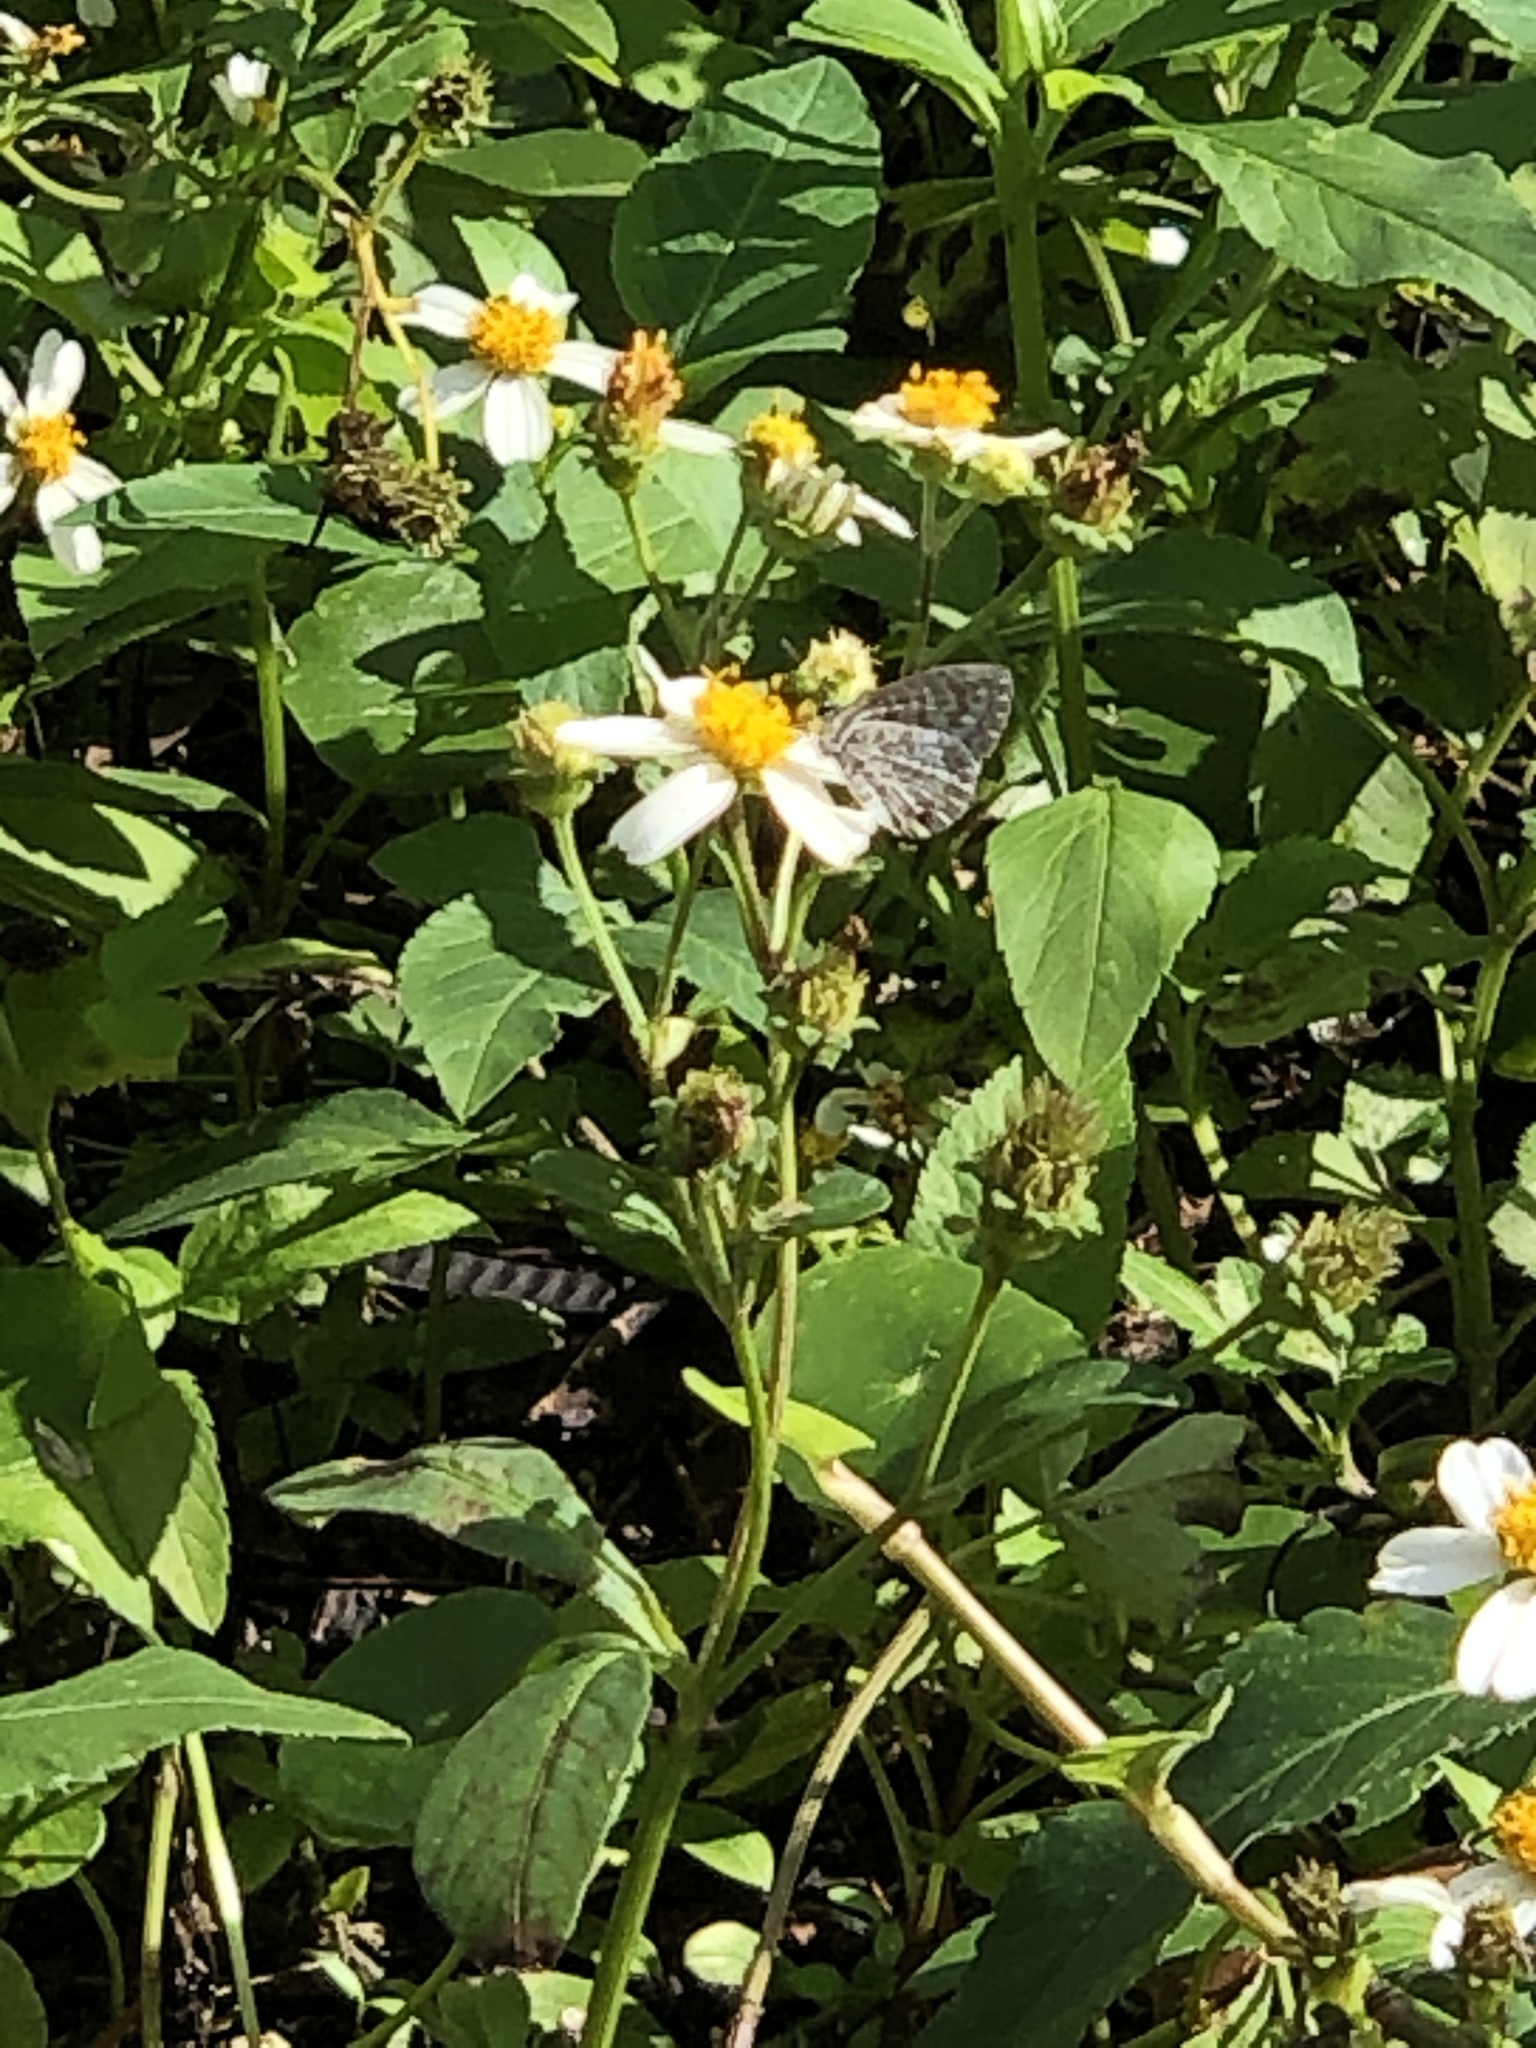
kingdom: Animalia
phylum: Arthropoda
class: Insecta
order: Lepidoptera
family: Lycaenidae
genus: Leptotes
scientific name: Leptotes cassius
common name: Cassius blue
